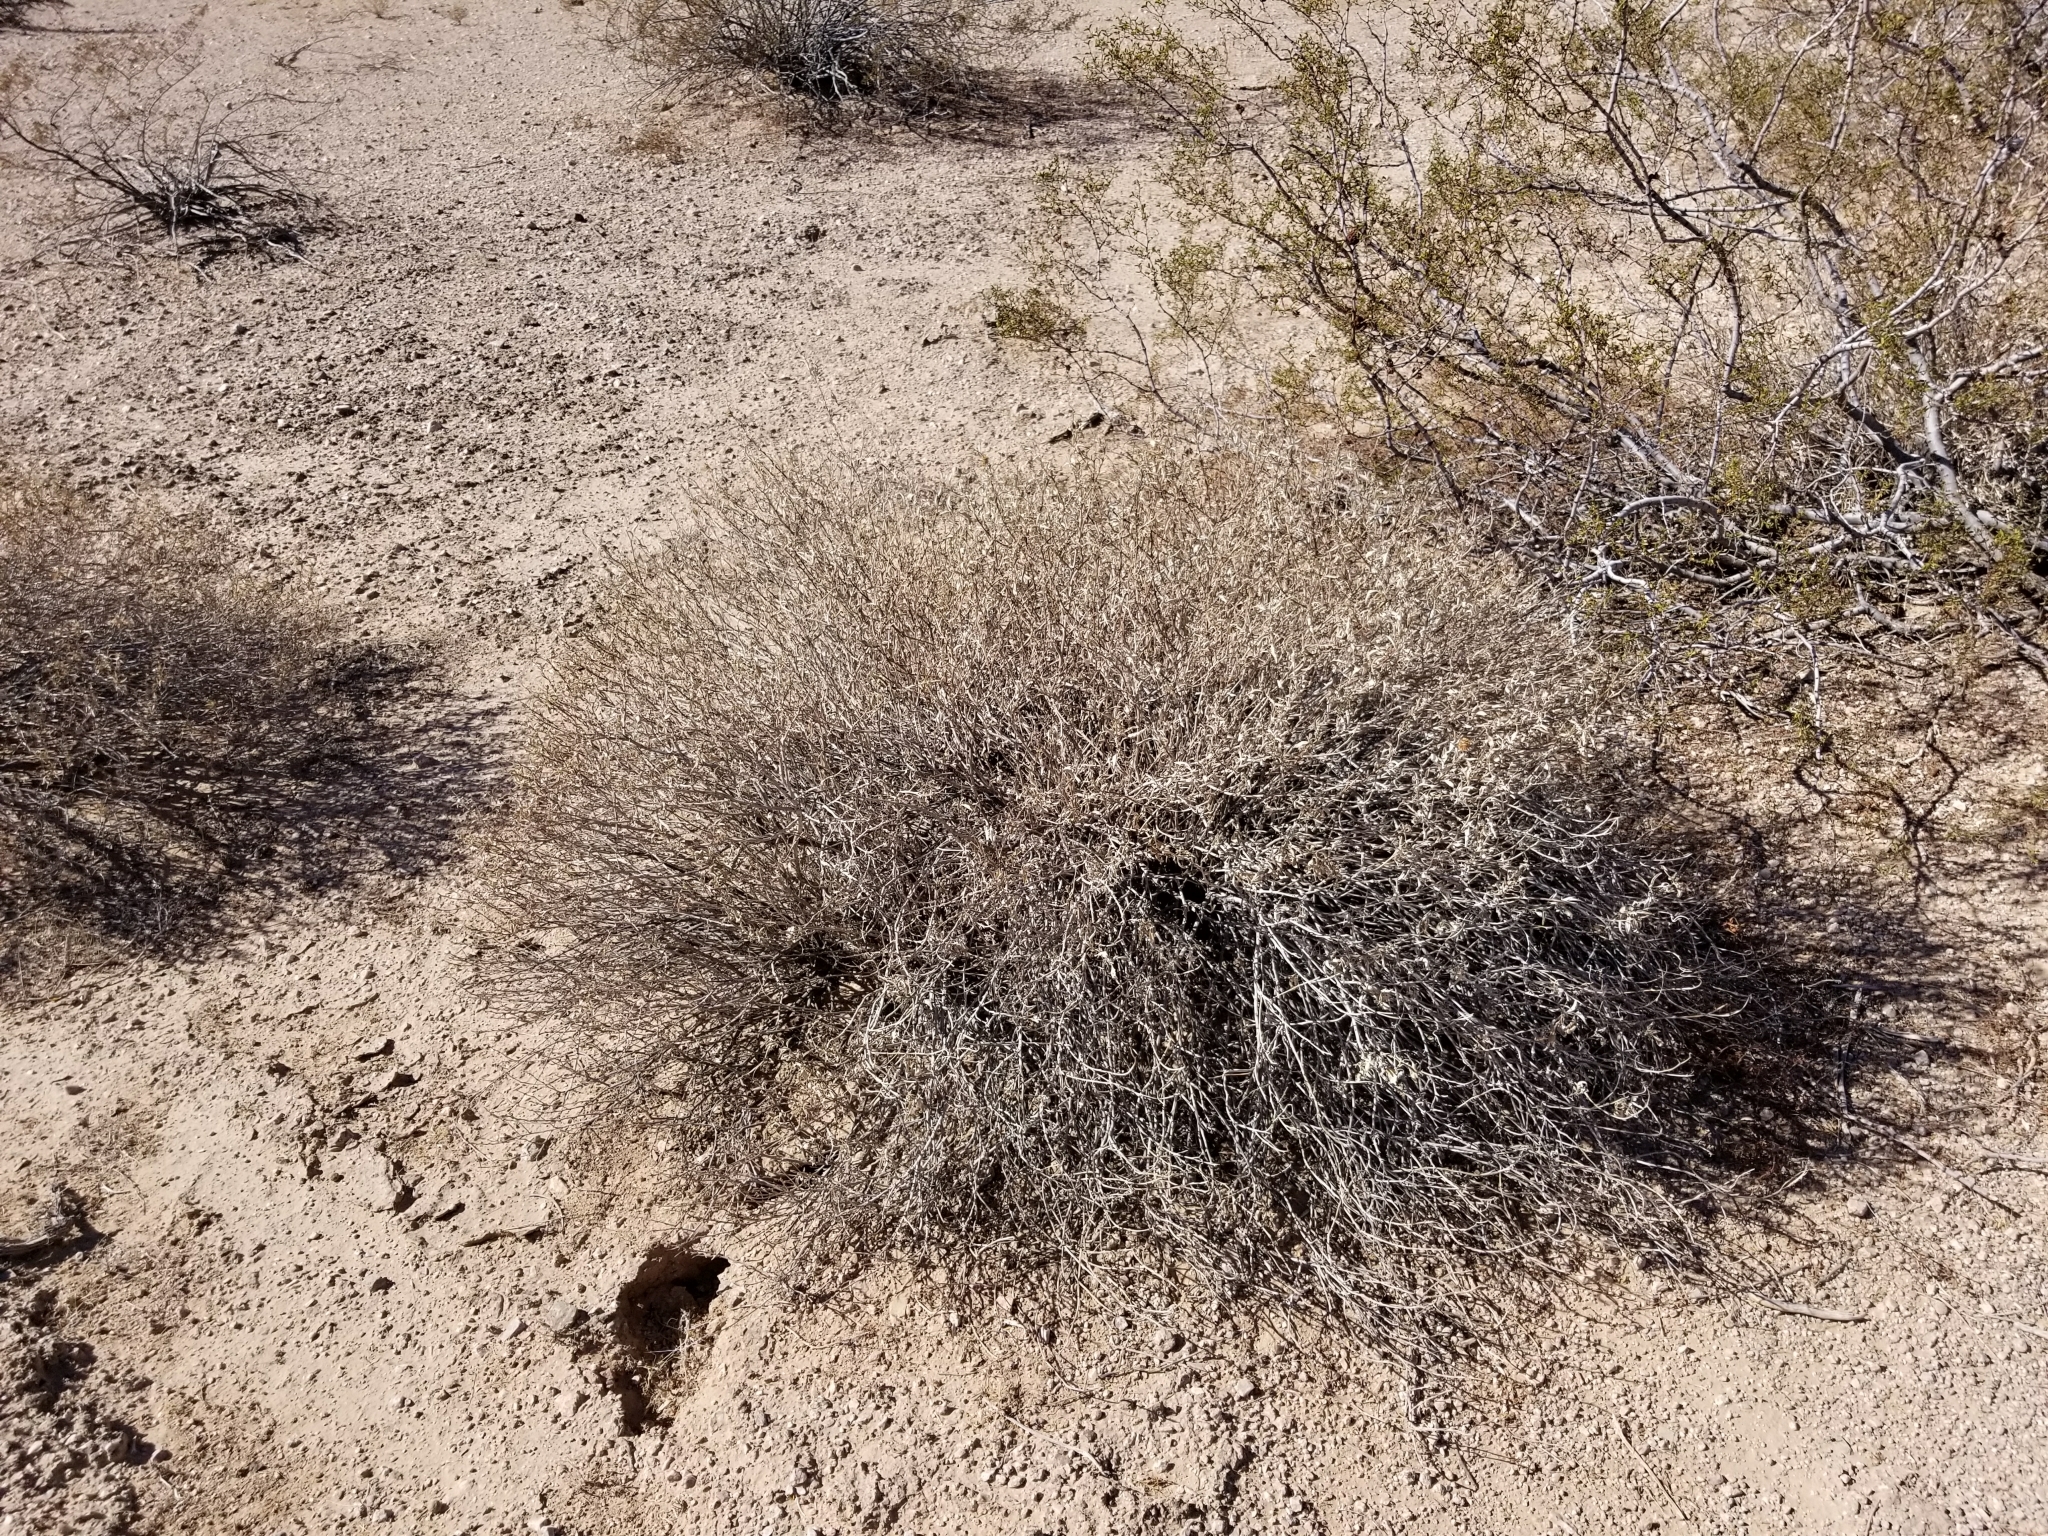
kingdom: Plantae
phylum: Tracheophyta
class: Magnoliopsida
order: Asterales
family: Asteraceae
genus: Ambrosia
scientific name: Ambrosia deltoidea
